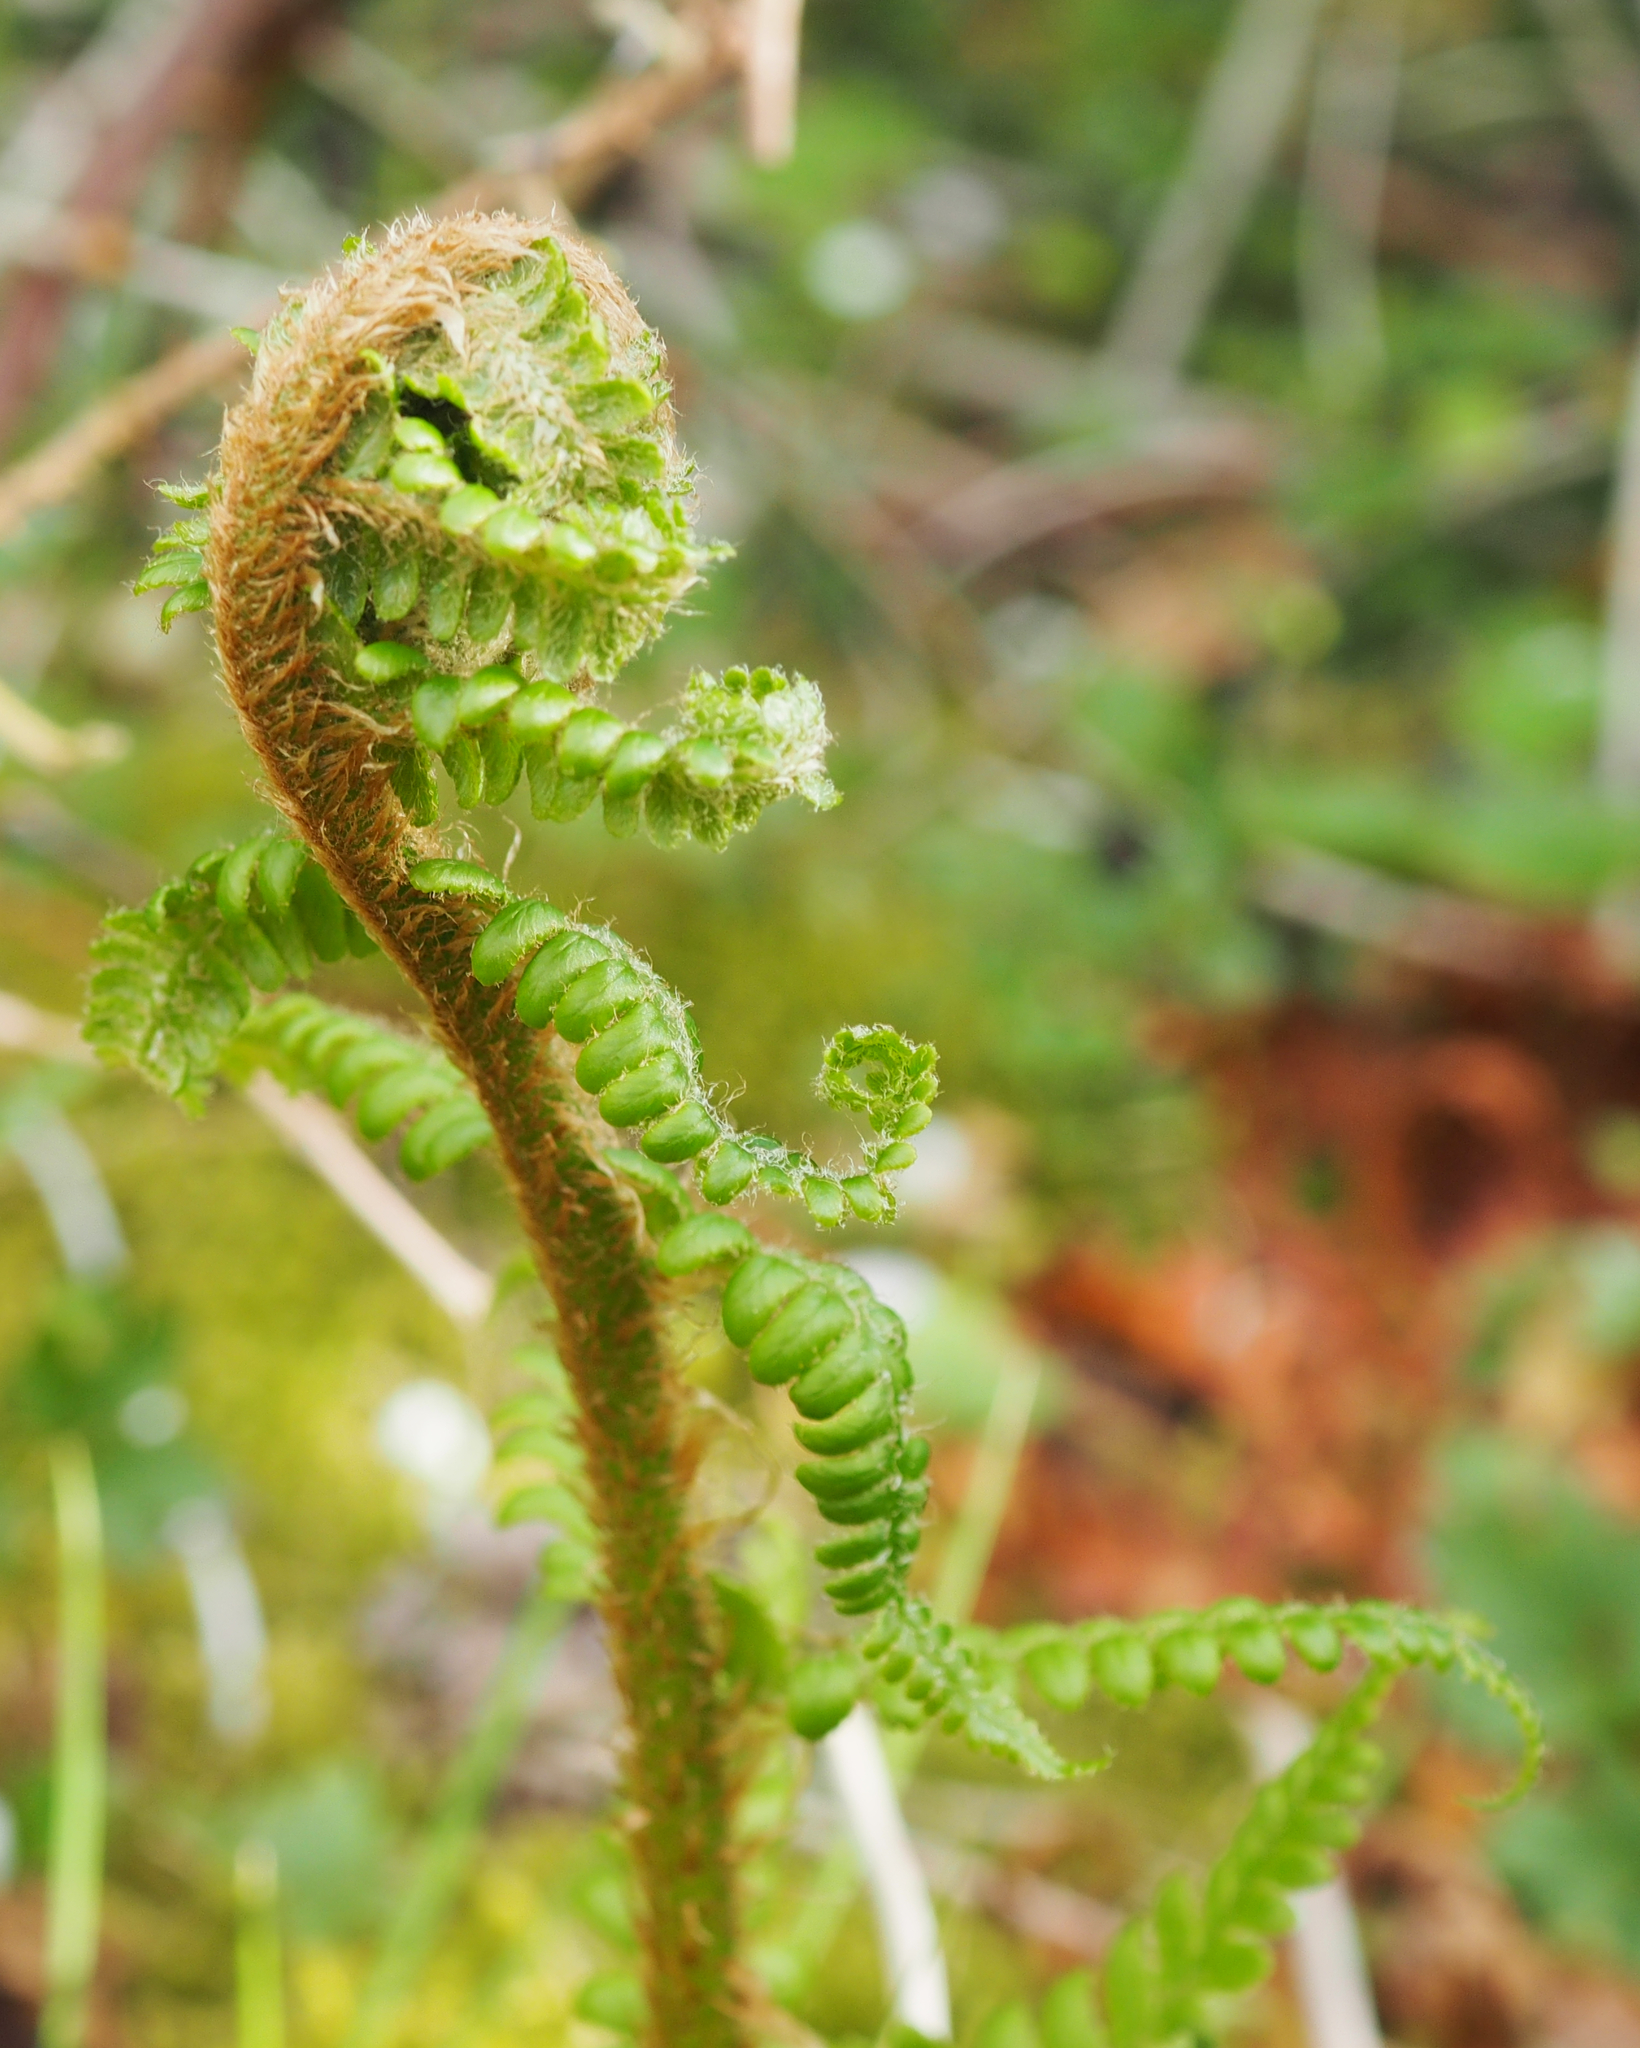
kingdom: Plantae
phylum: Tracheophyta
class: Polypodiopsida
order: Polypodiales
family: Dryopteridaceae
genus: Dryopteris
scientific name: Dryopteris filix-mas
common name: Male fern
